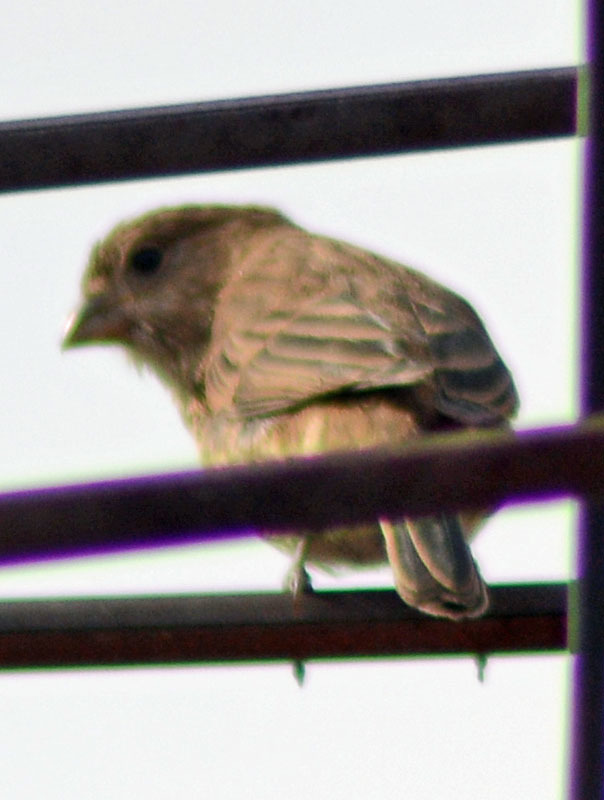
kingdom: Animalia
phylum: Chordata
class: Aves
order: Passeriformes
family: Fringillidae
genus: Haemorhous
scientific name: Haemorhous mexicanus
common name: House finch
